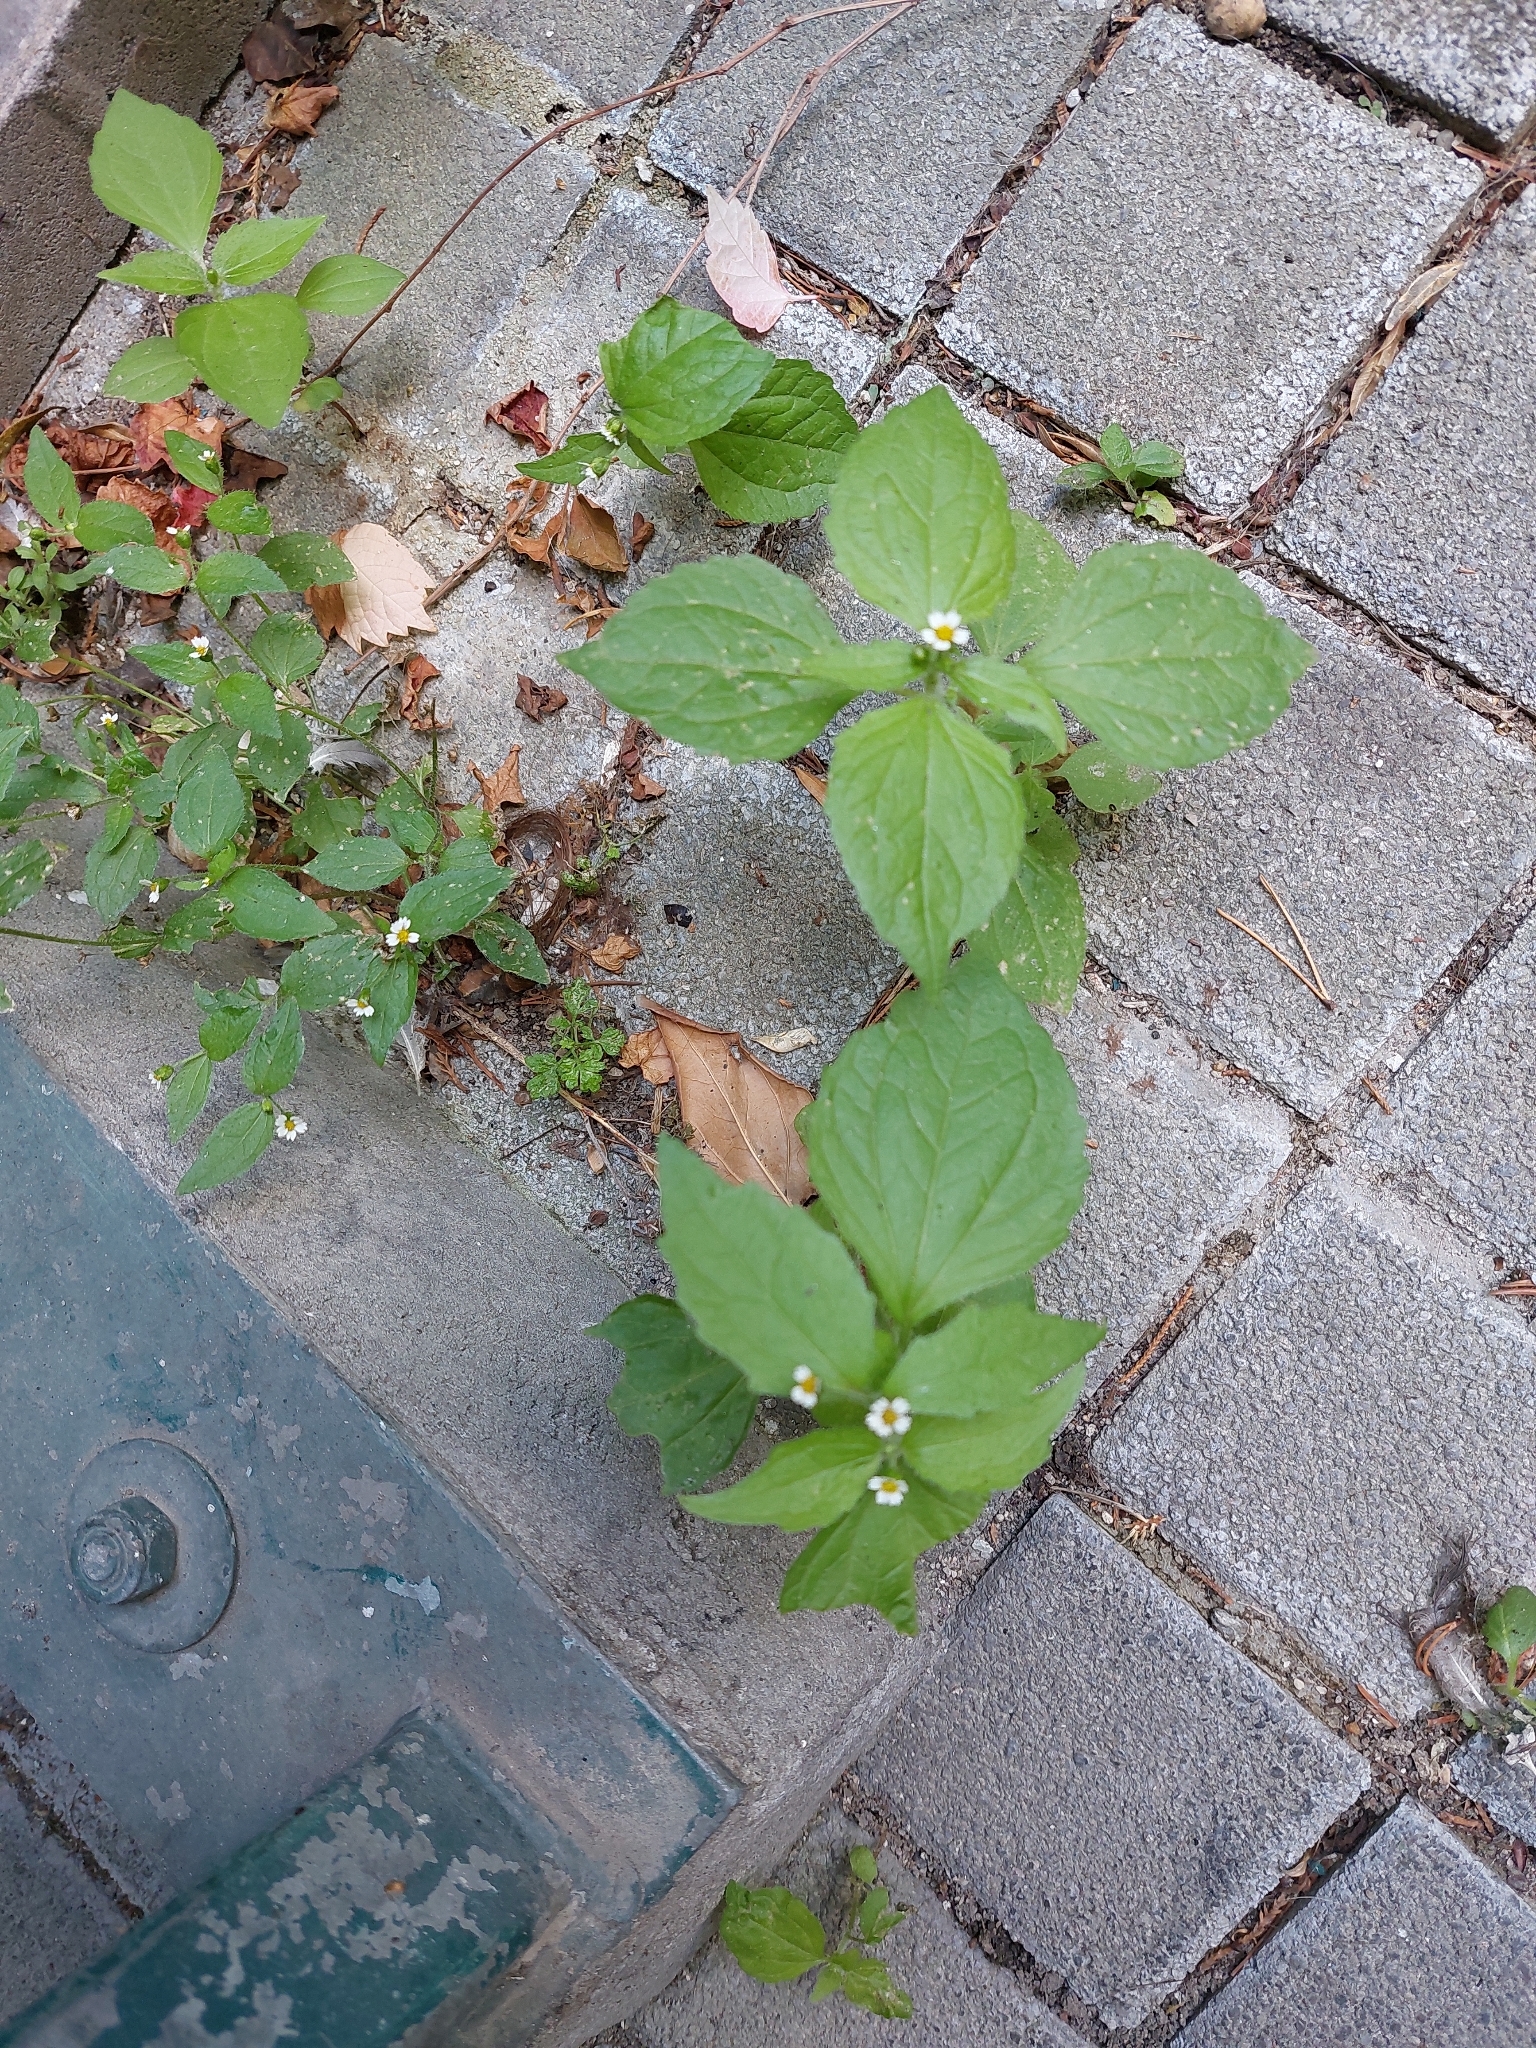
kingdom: Plantae
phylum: Tracheophyta
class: Magnoliopsida
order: Asterales
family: Asteraceae
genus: Galinsoga
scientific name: Galinsoga quadriradiata
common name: Shaggy soldier
